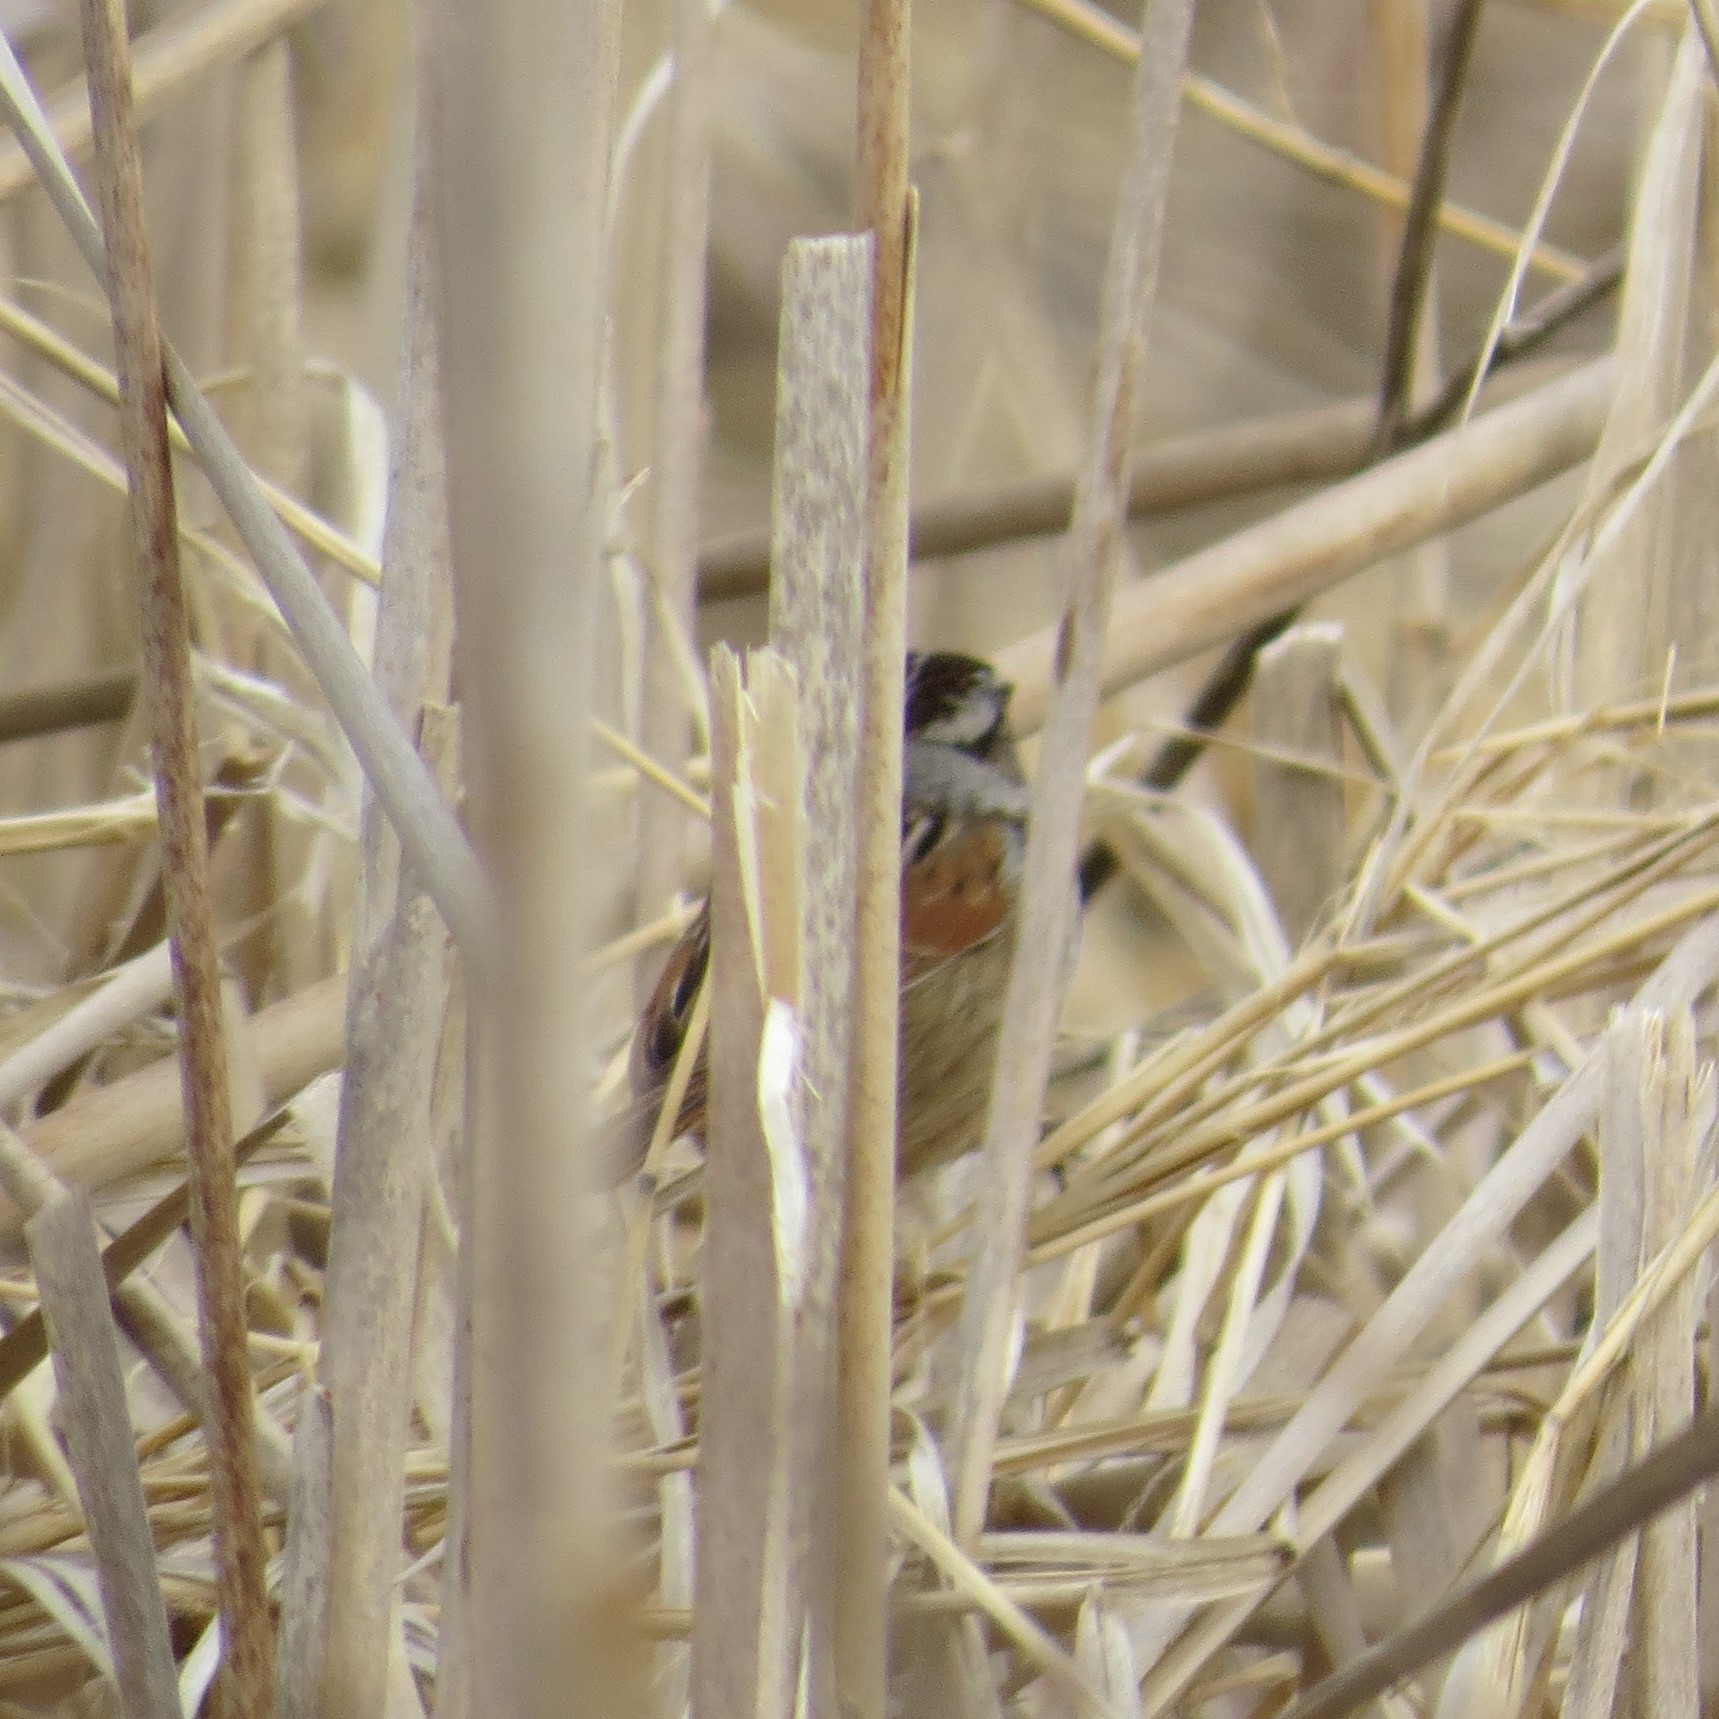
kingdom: Animalia
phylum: Chordata
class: Aves
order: Passeriformes
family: Passerellidae
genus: Melospiza
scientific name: Melospiza georgiana
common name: Swamp sparrow
